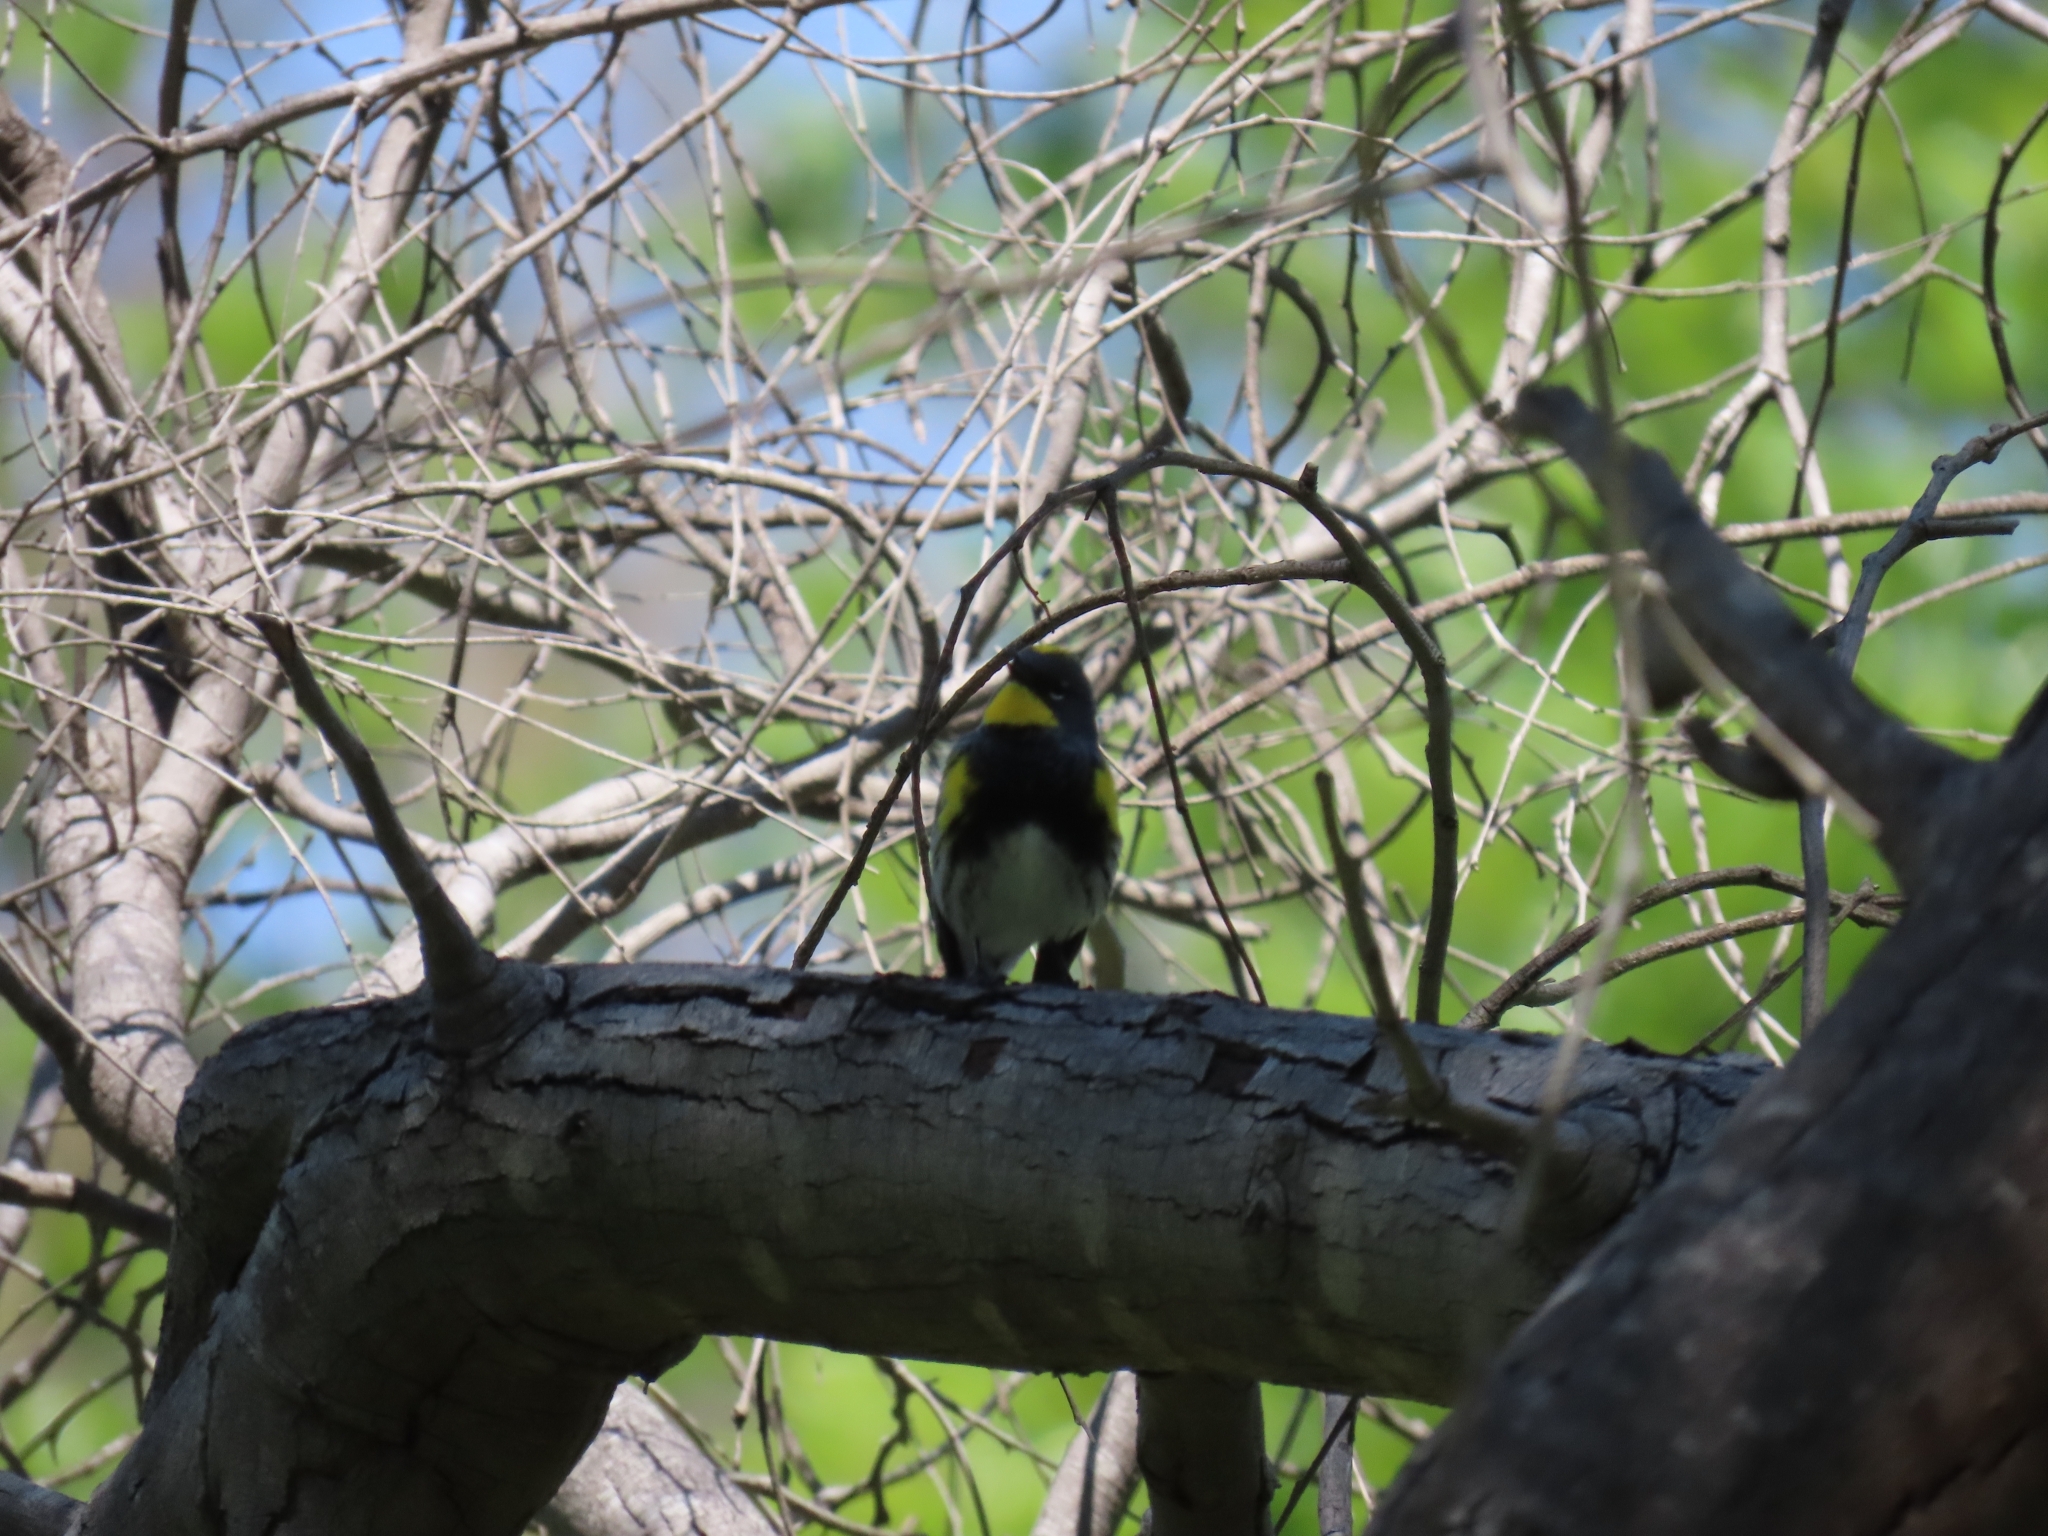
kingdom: Animalia
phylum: Chordata
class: Aves
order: Passeriformes
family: Parulidae
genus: Setophaga
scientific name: Setophaga auduboni
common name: Audubon's warbler
